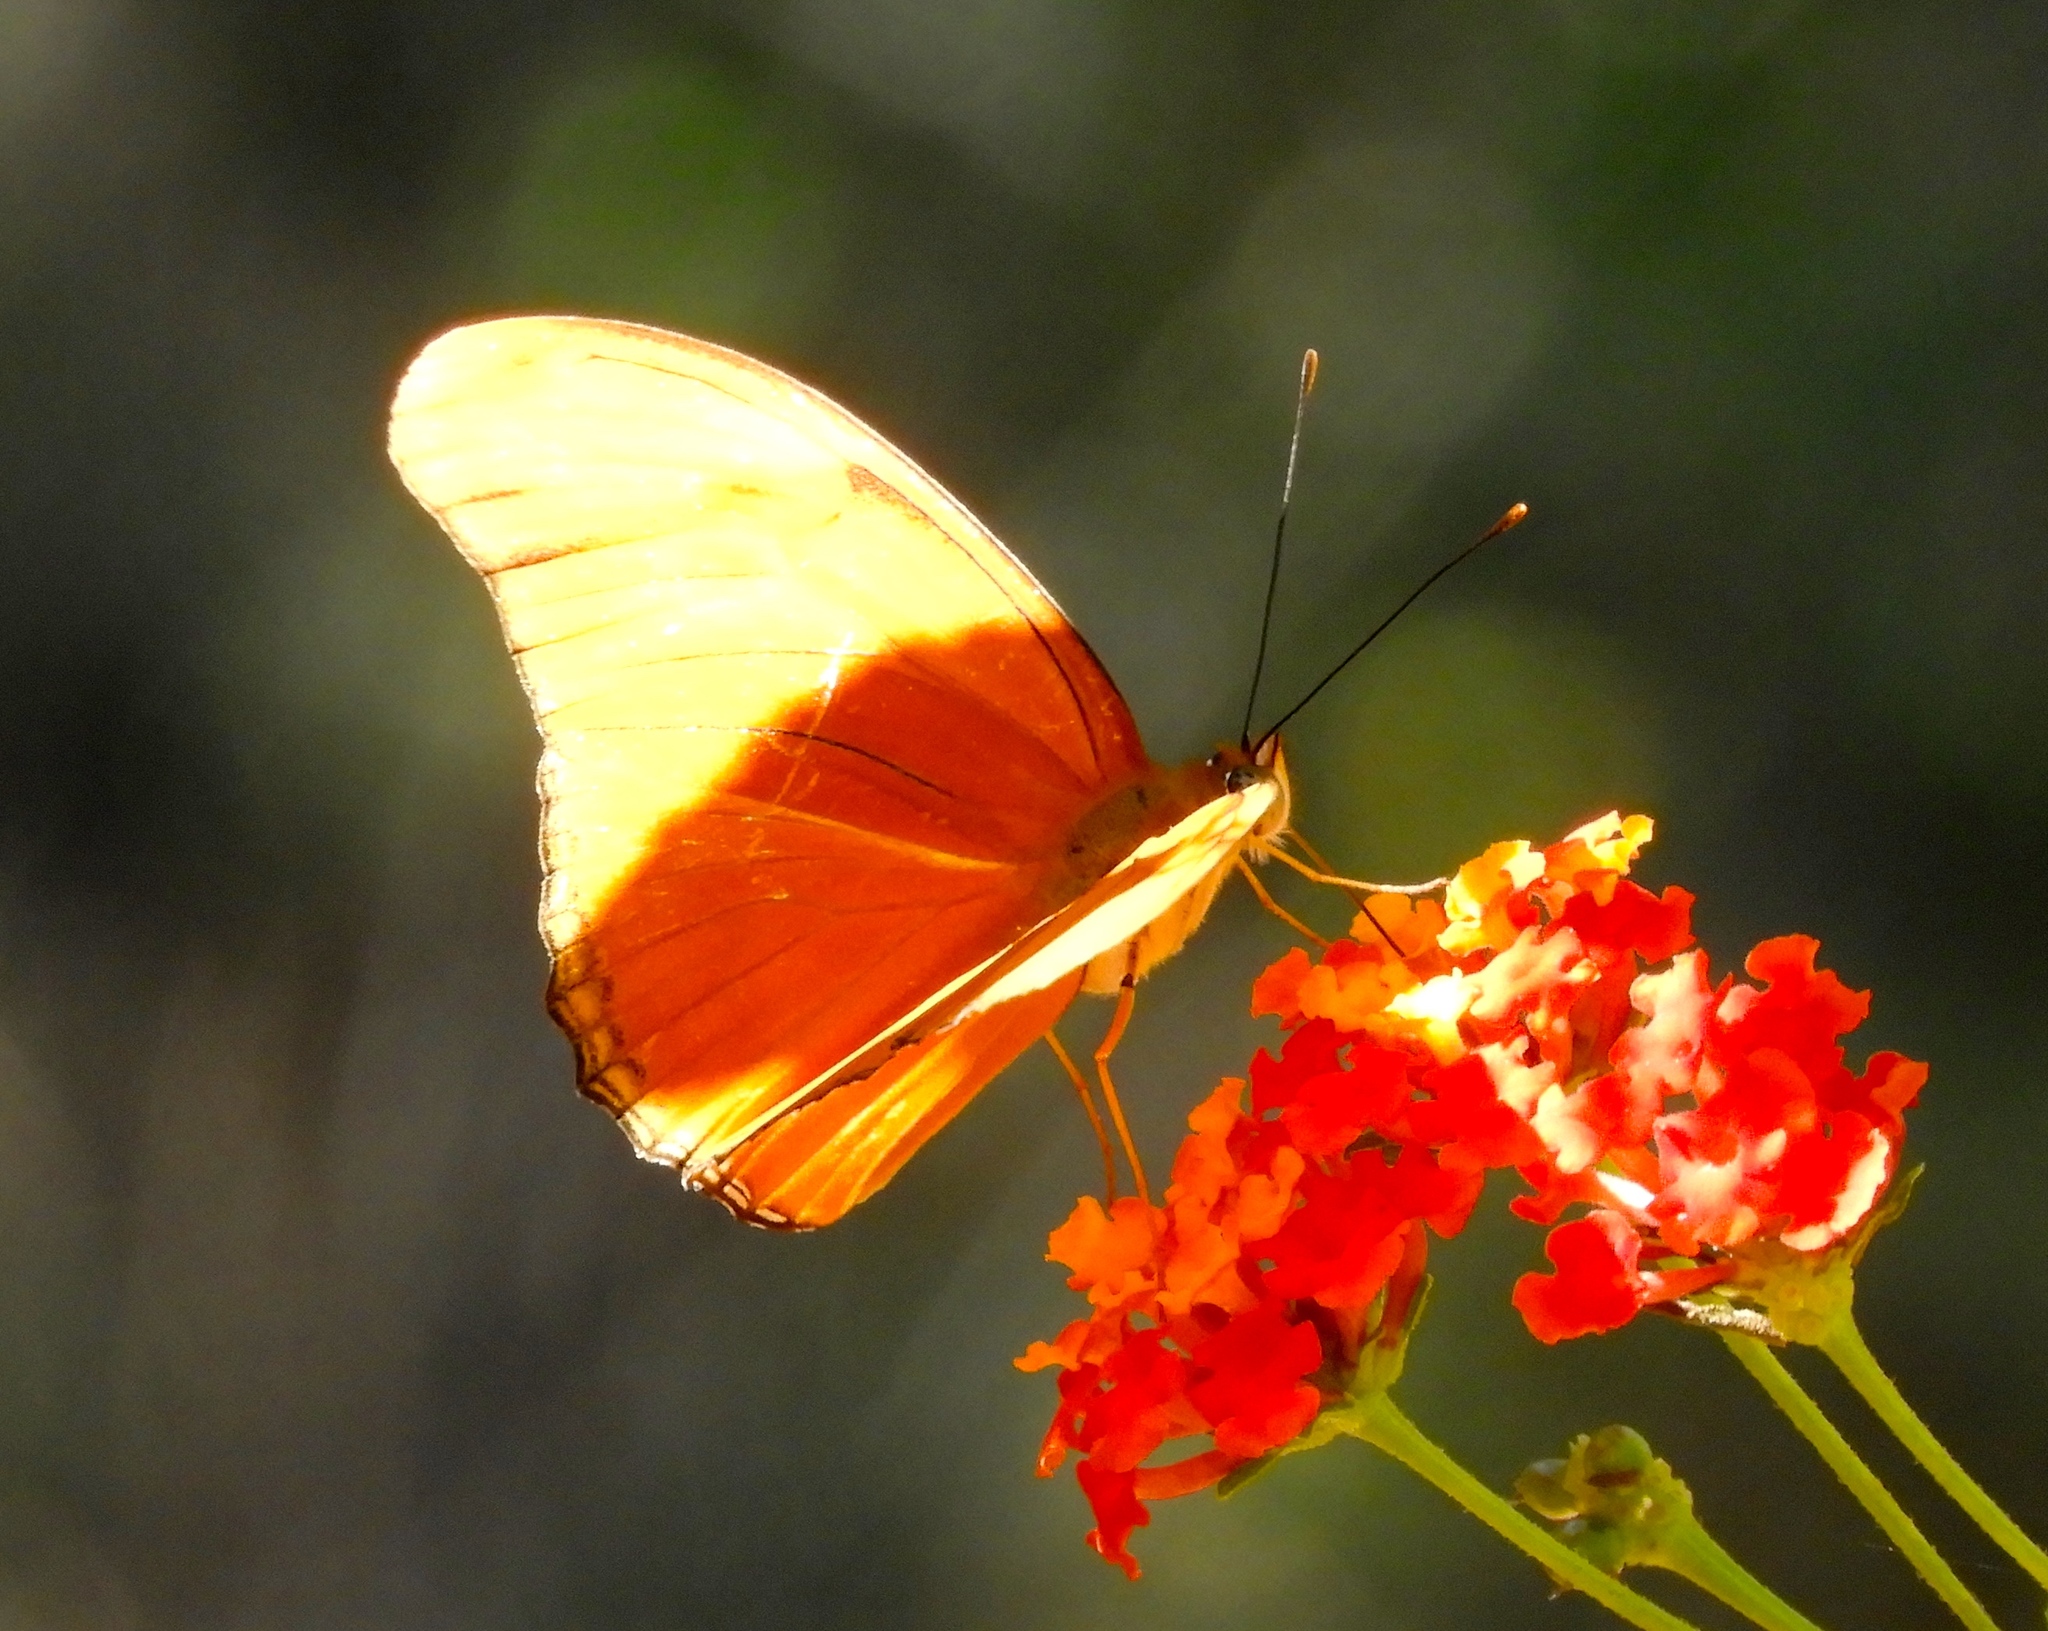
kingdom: Animalia
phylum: Arthropoda
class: Insecta
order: Lepidoptera
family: Nymphalidae
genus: Dryas
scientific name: Dryas iulia
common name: Flambeau
